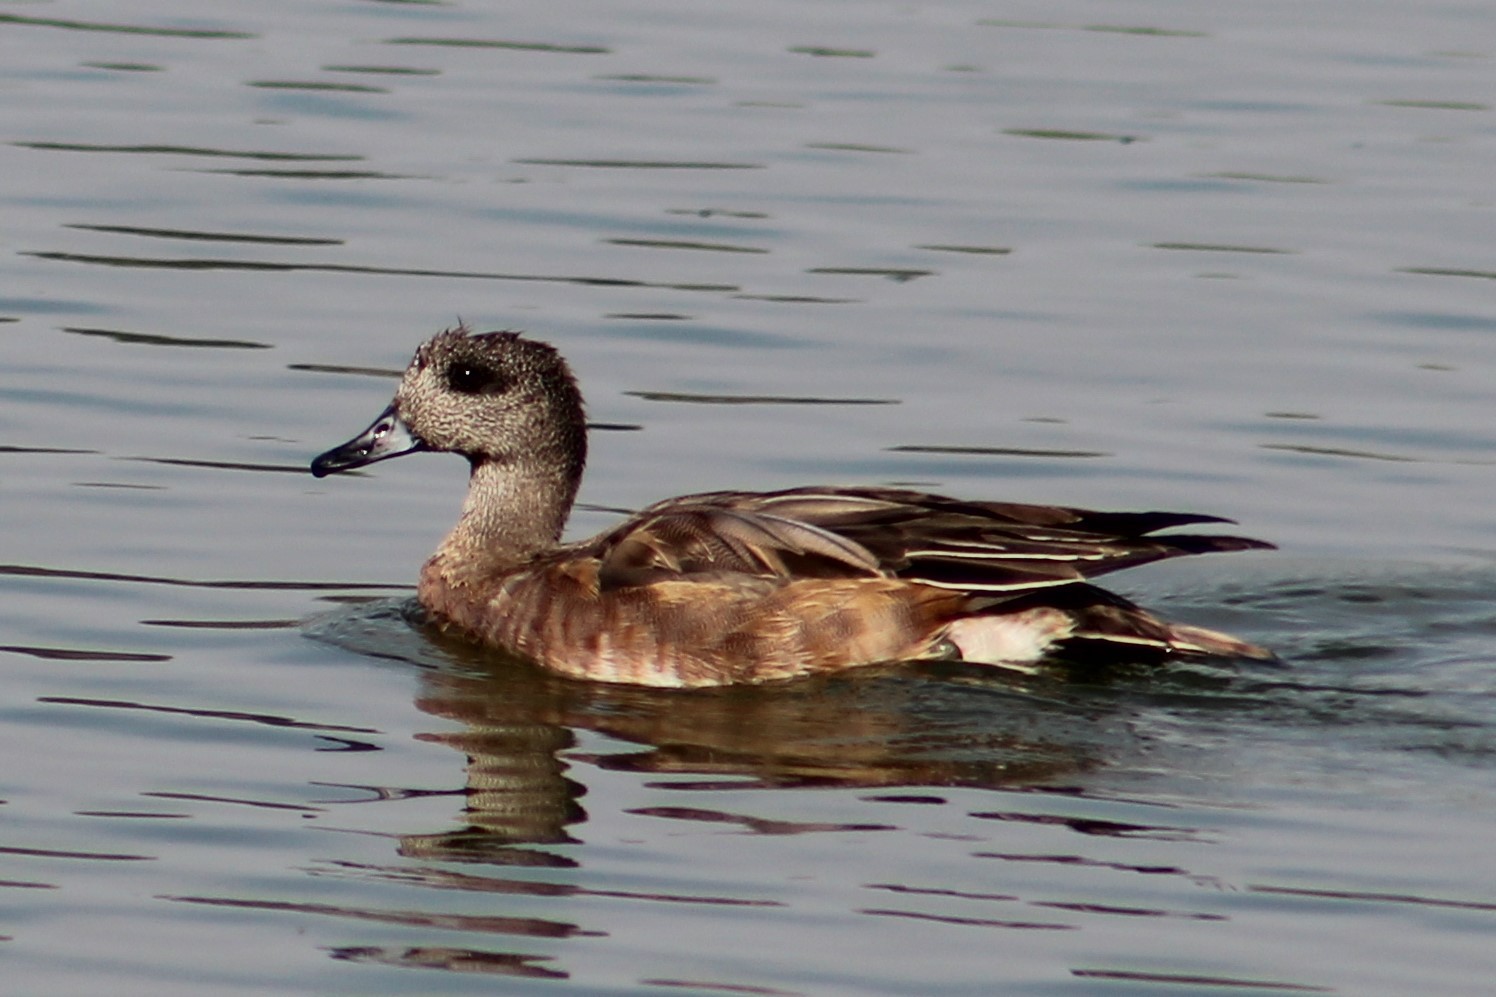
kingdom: Animalia
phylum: Chordata
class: Aves
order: Anseriformes
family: Anatidae
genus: Mareca
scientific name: Mareca americana
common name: American wigeon
